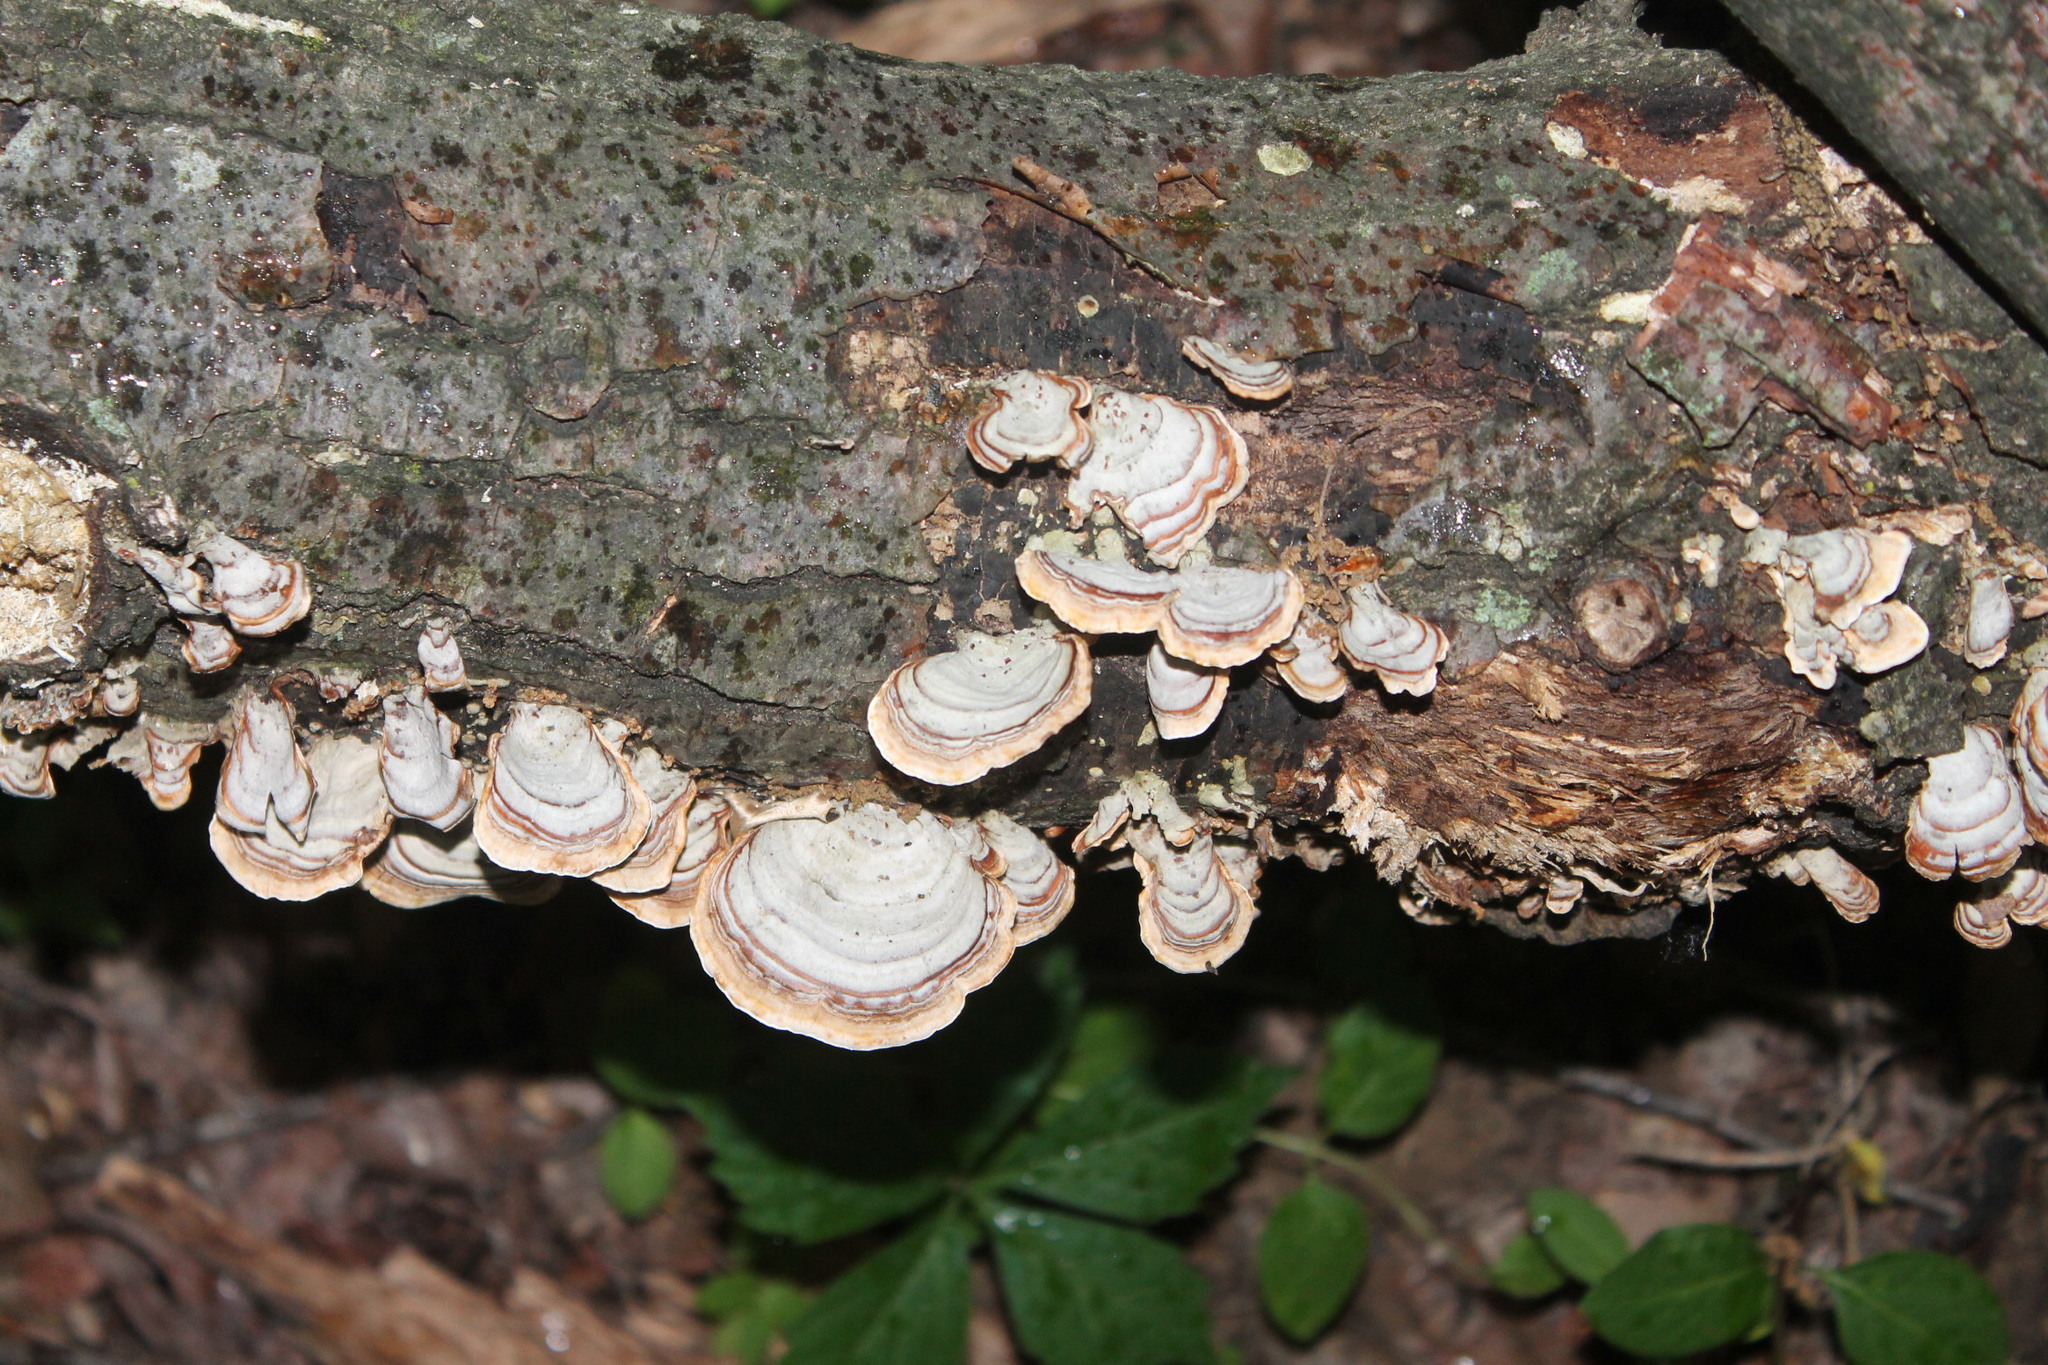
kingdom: Fungi
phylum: Basidiomycota
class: Agaricomycetes
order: Russulales
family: Stereaceae
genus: Stereum
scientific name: Stereum lobatum
